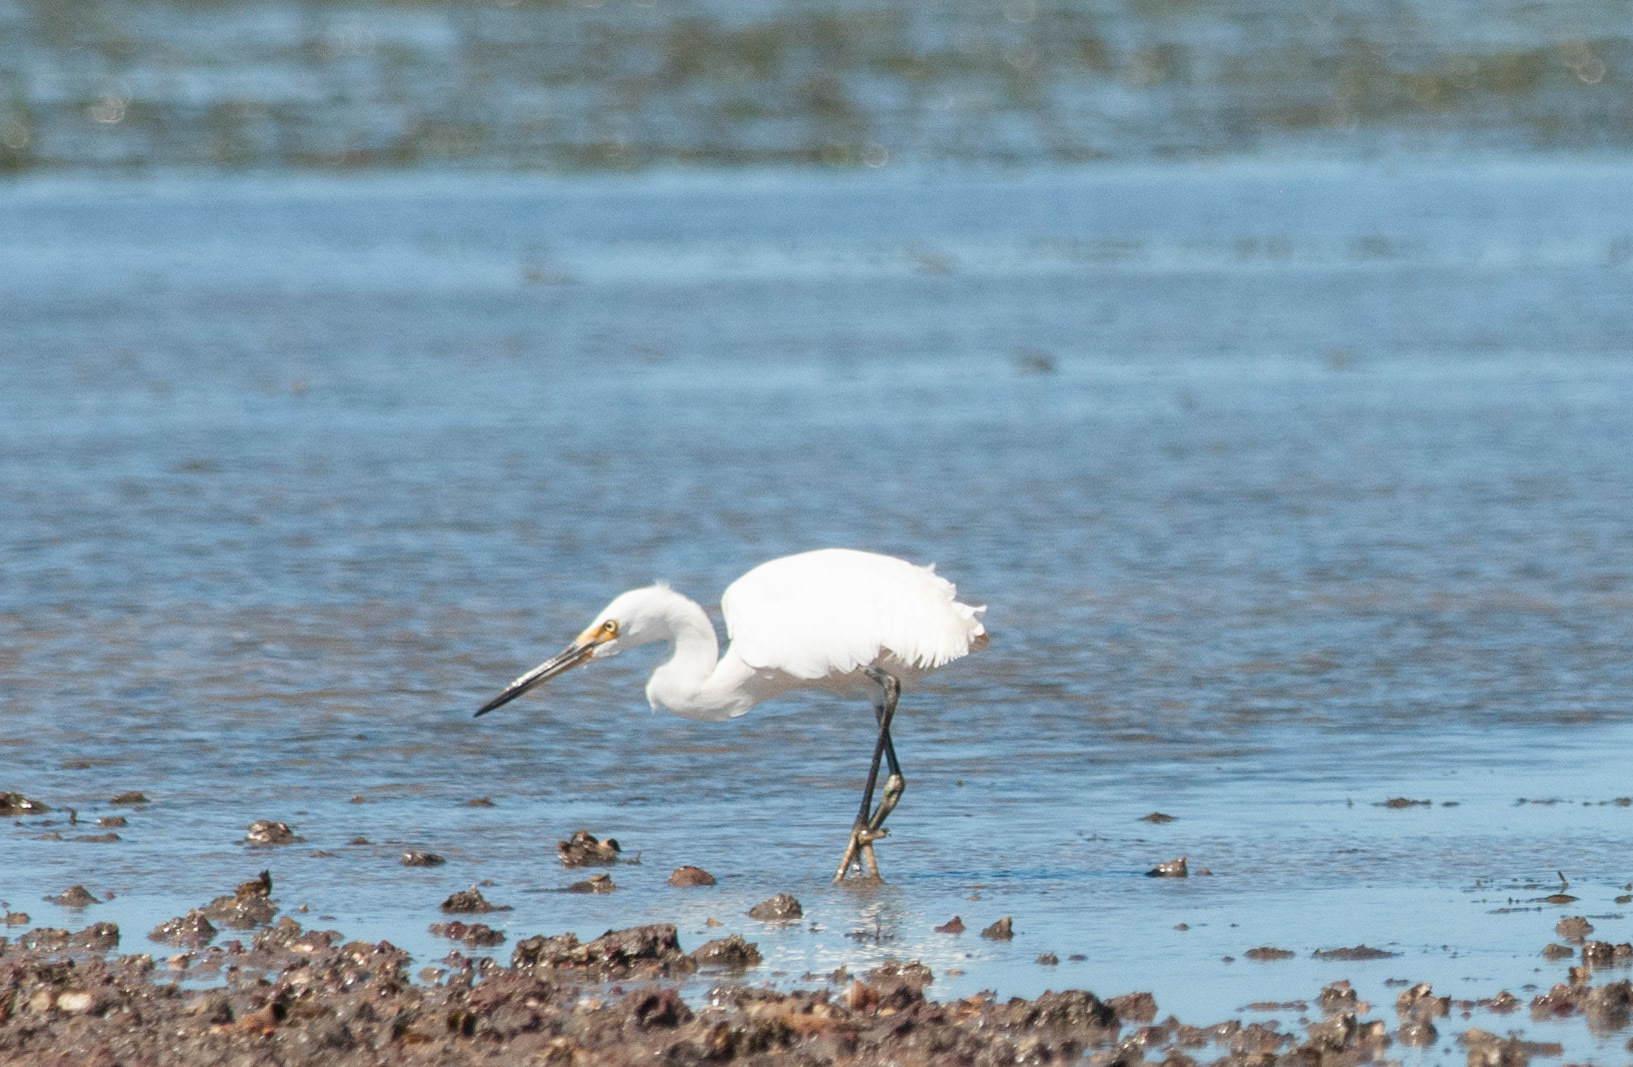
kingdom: Animalia
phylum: Chordata
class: Aves
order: Pelecaniformes
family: Ardeidae
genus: Egretta
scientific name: Egretta garzetta
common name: Little egret
